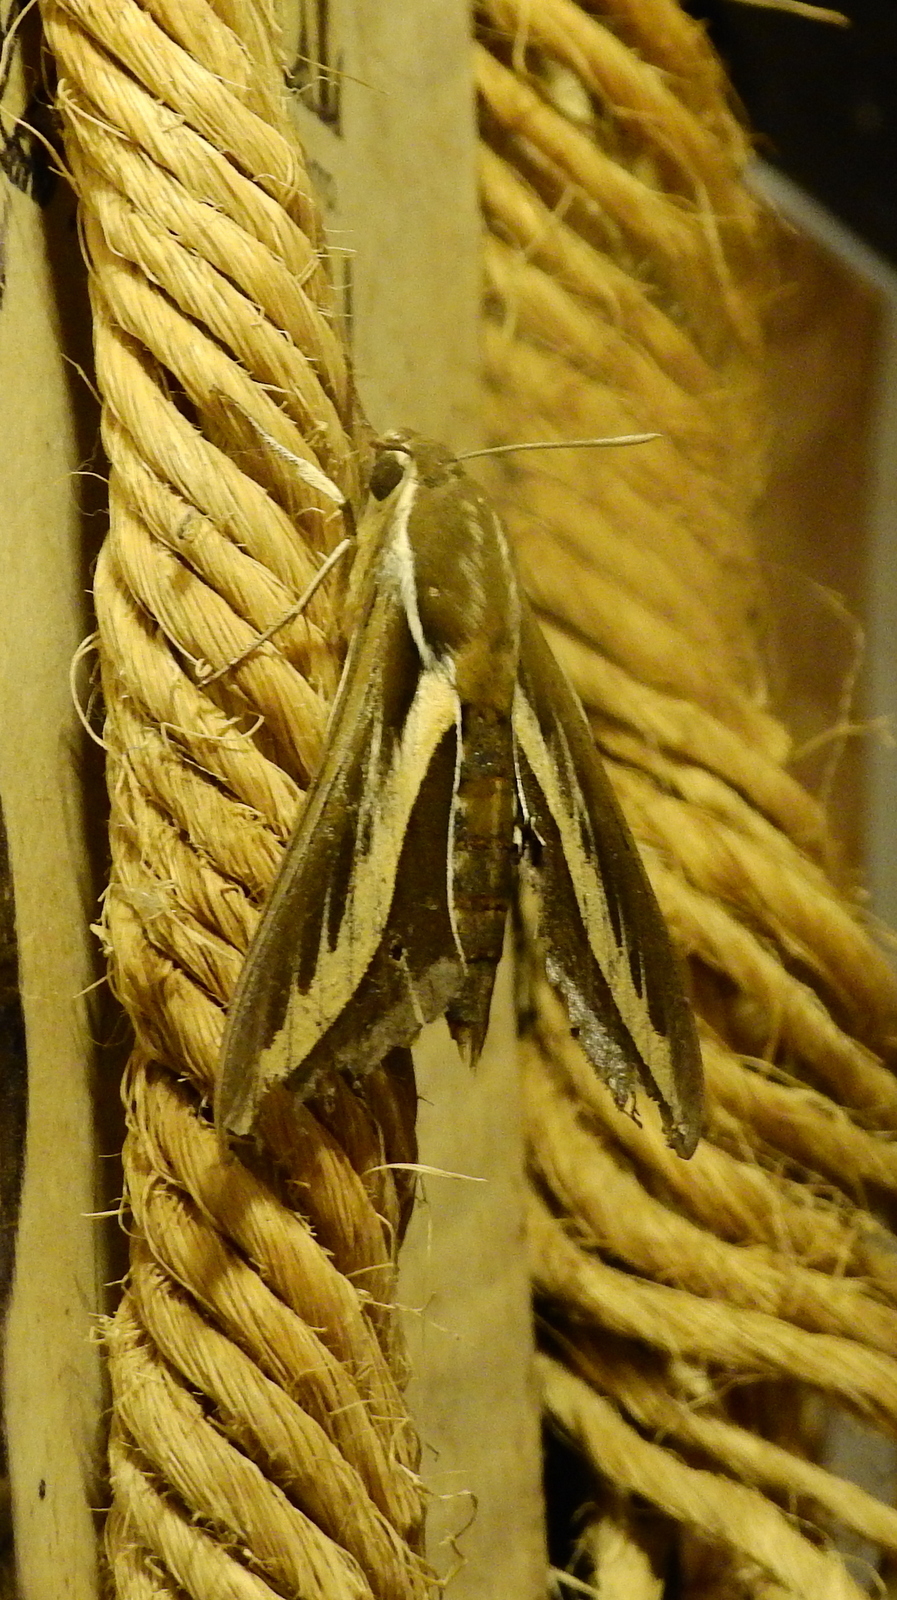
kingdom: Animalia
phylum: Arthropoda
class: Insecta
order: Lepidoptera
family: Sphingidae
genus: Hyles
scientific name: Hyles euphorbiarum
